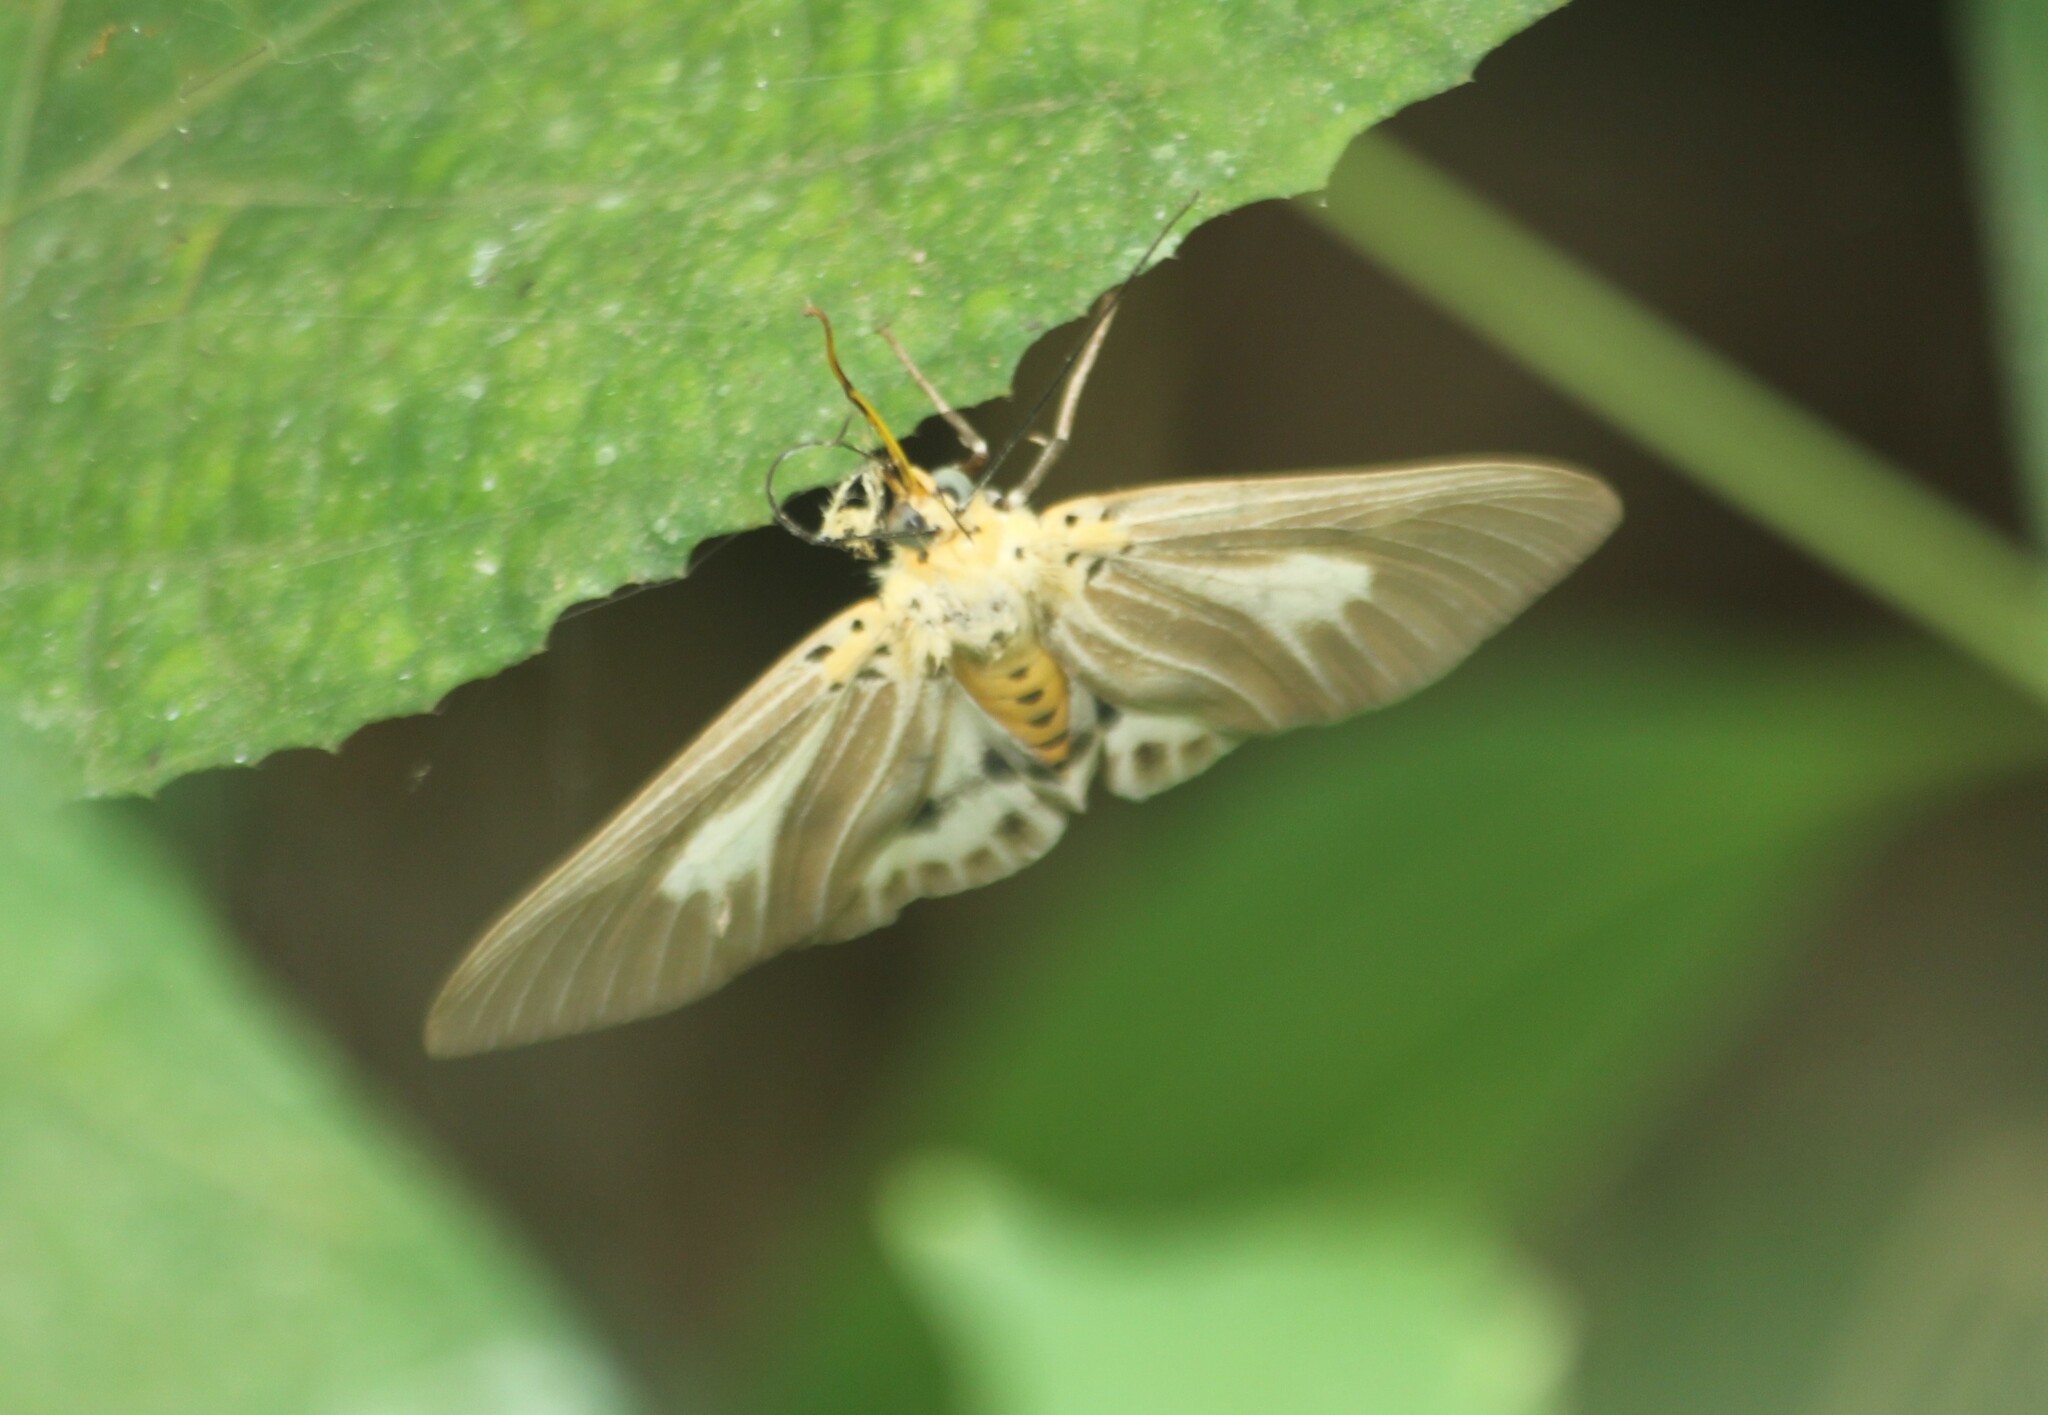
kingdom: Animalia
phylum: Arthropoda
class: Insecta
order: Lepidoptera
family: Erebidae
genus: Asota
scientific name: Asota canaraica
